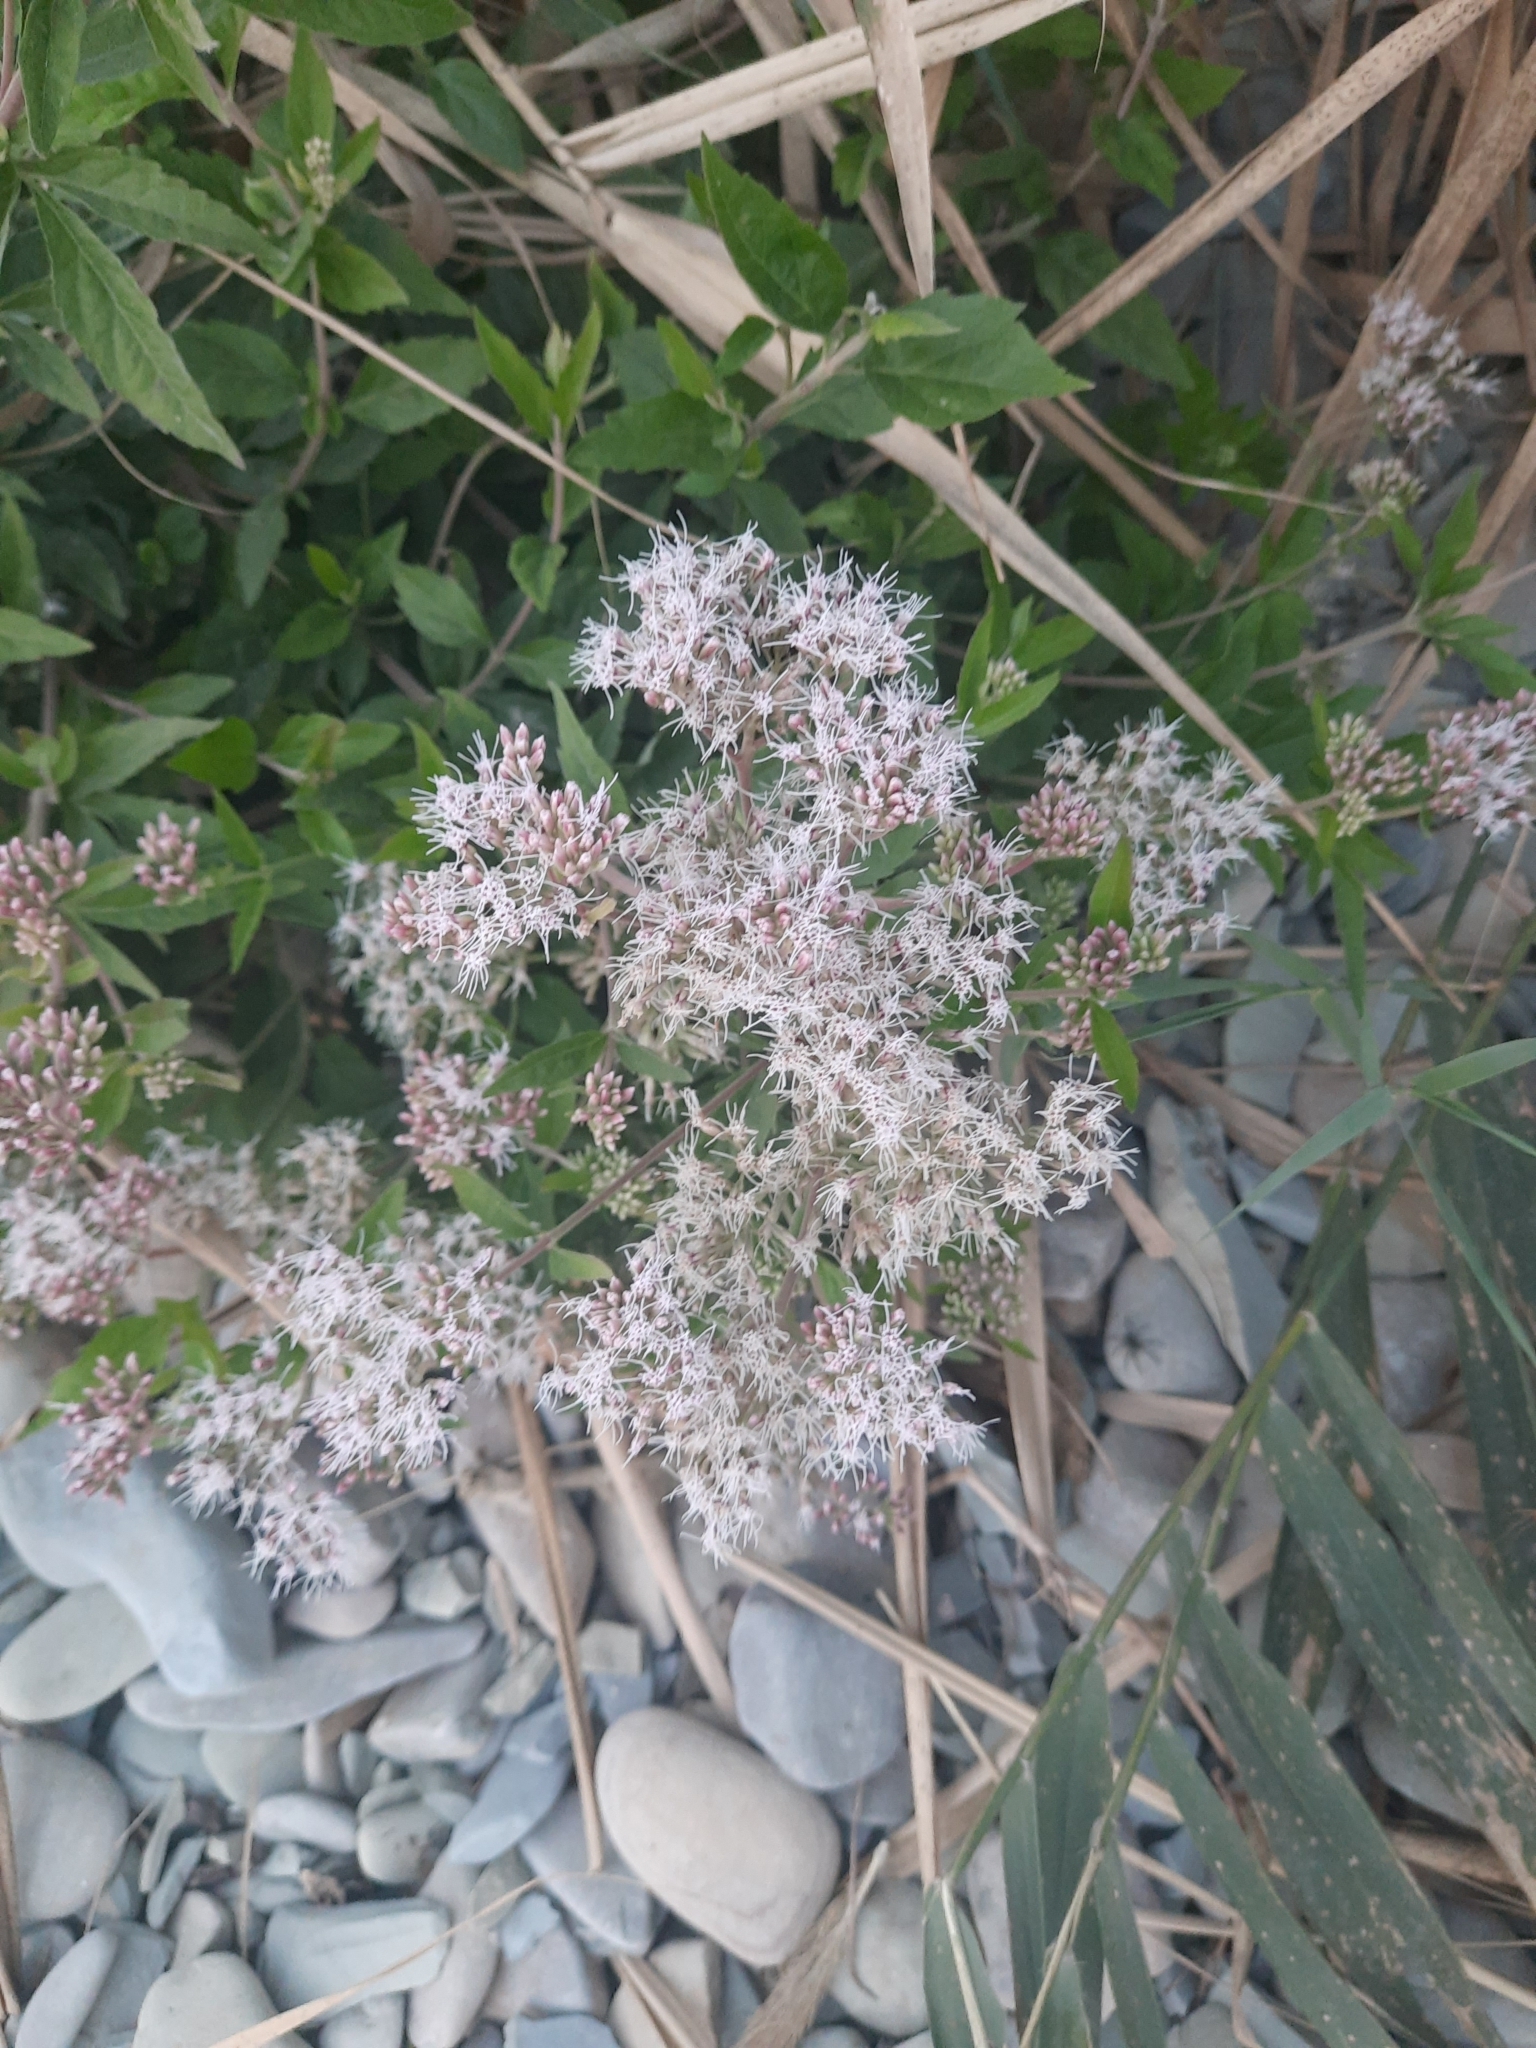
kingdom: Plantae
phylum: Tracheophyta
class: Magnoliopsida
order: Asterales
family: Asteraceae
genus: Eupatorium
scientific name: Eupatorium cannabinum
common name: Hemp-agrimony
